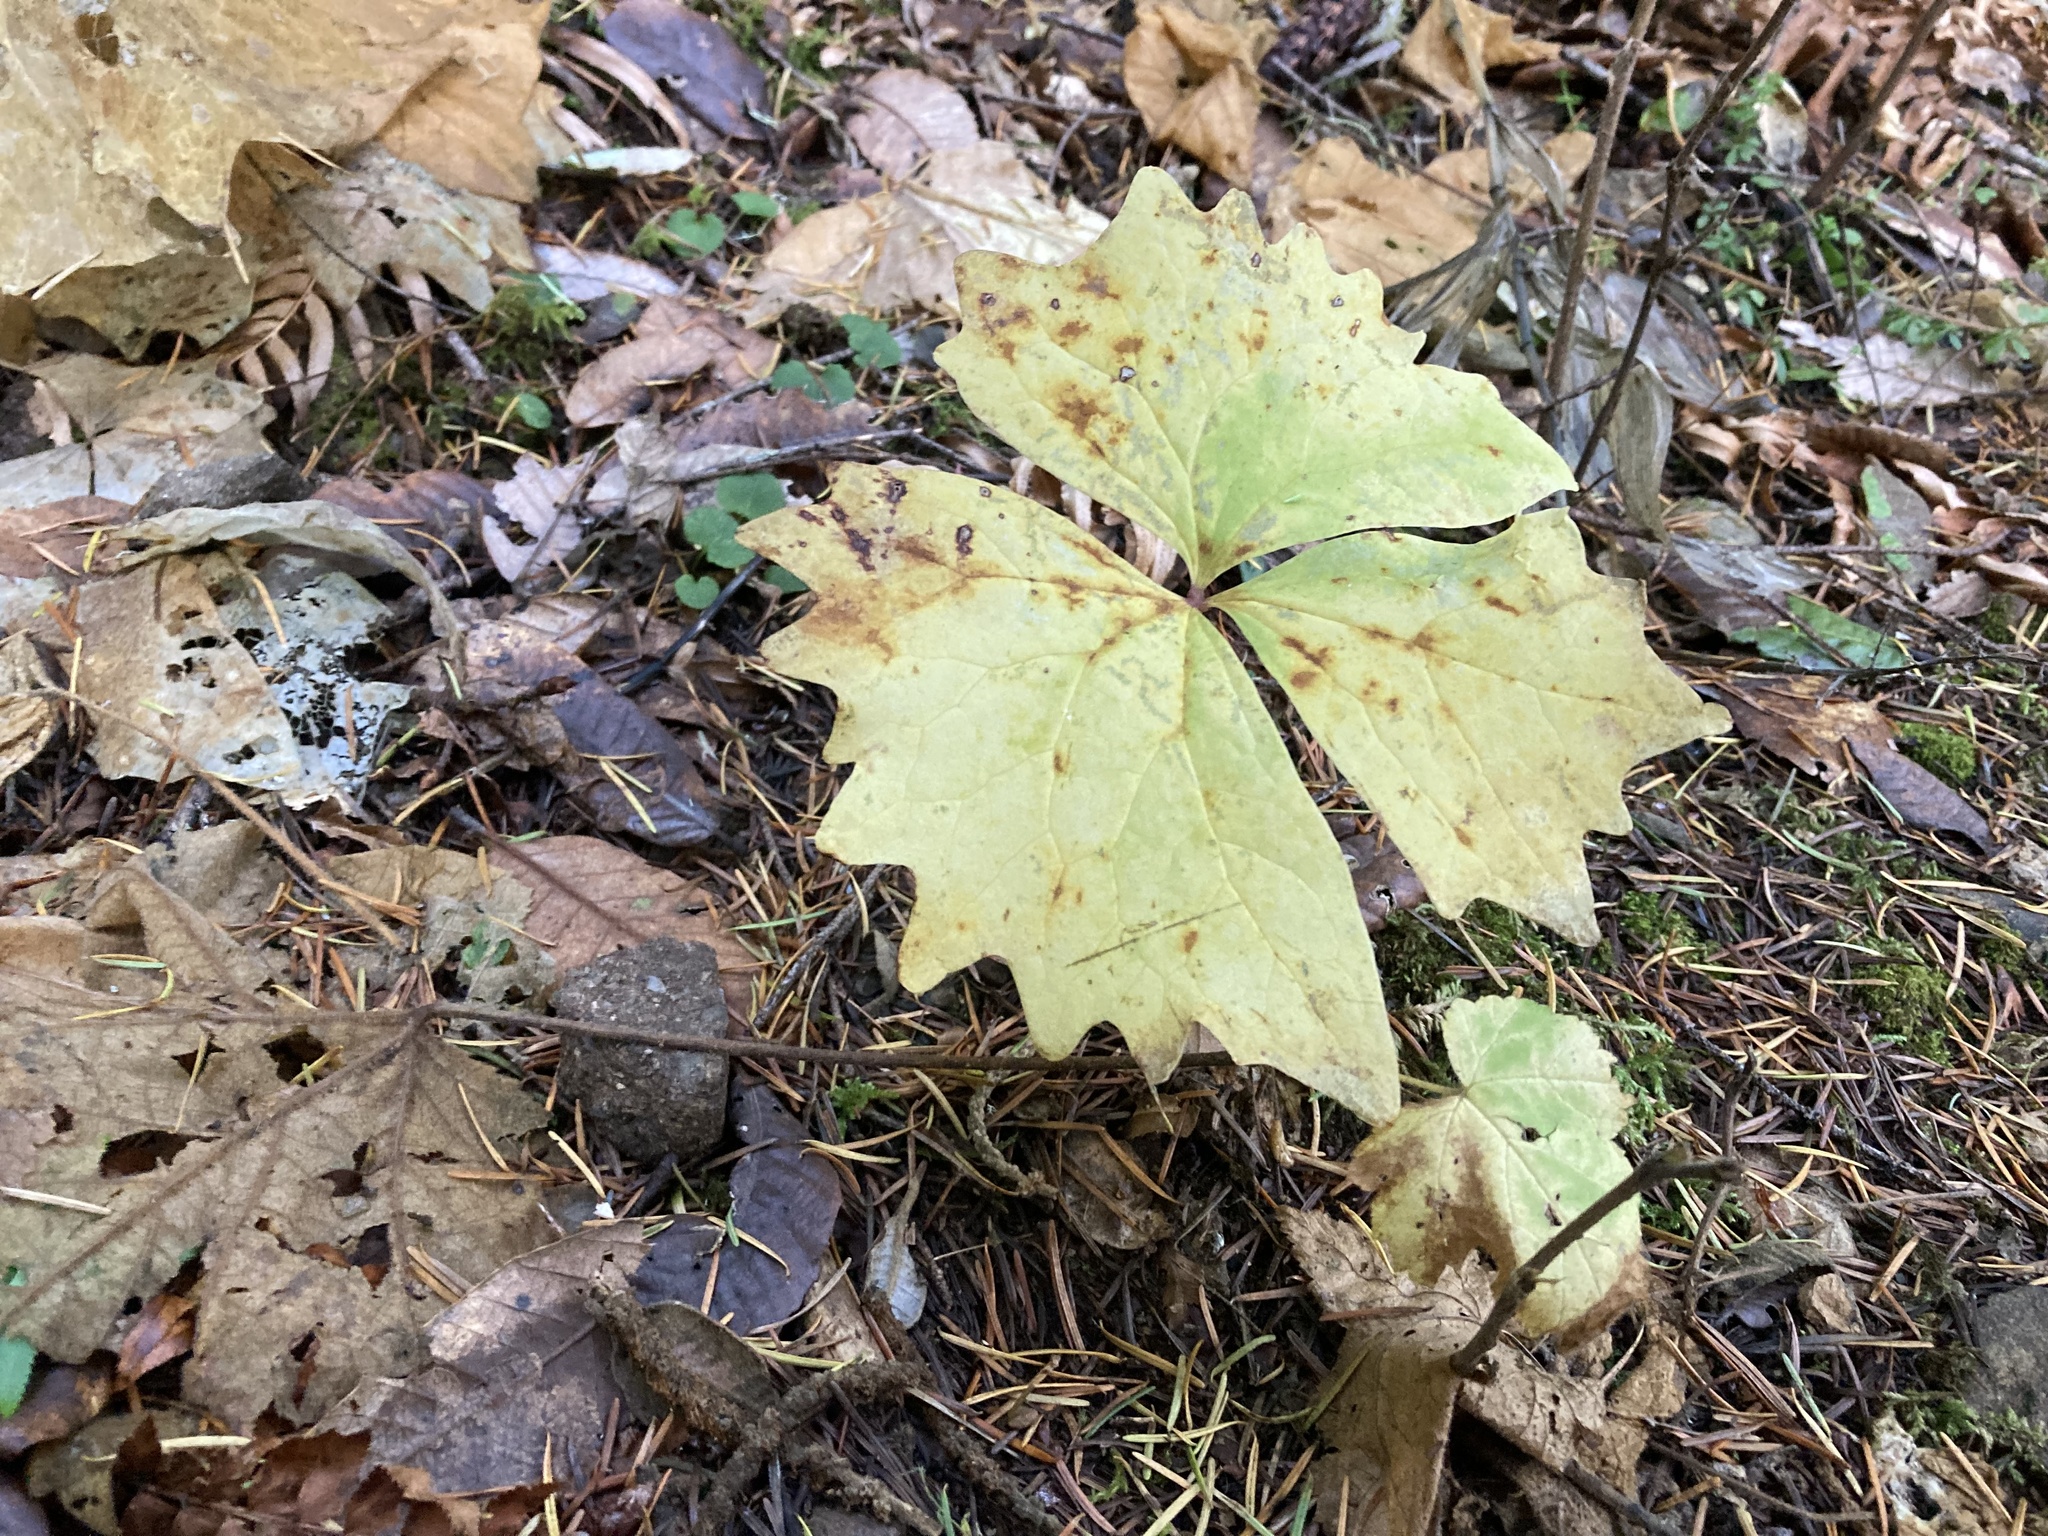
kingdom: Plantae
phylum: Tracheophyta
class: Magnoliopsida
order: Ranunculales
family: Berberidaceae
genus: Achlys
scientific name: Achlys triphylla
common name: Vanilla-leaf
